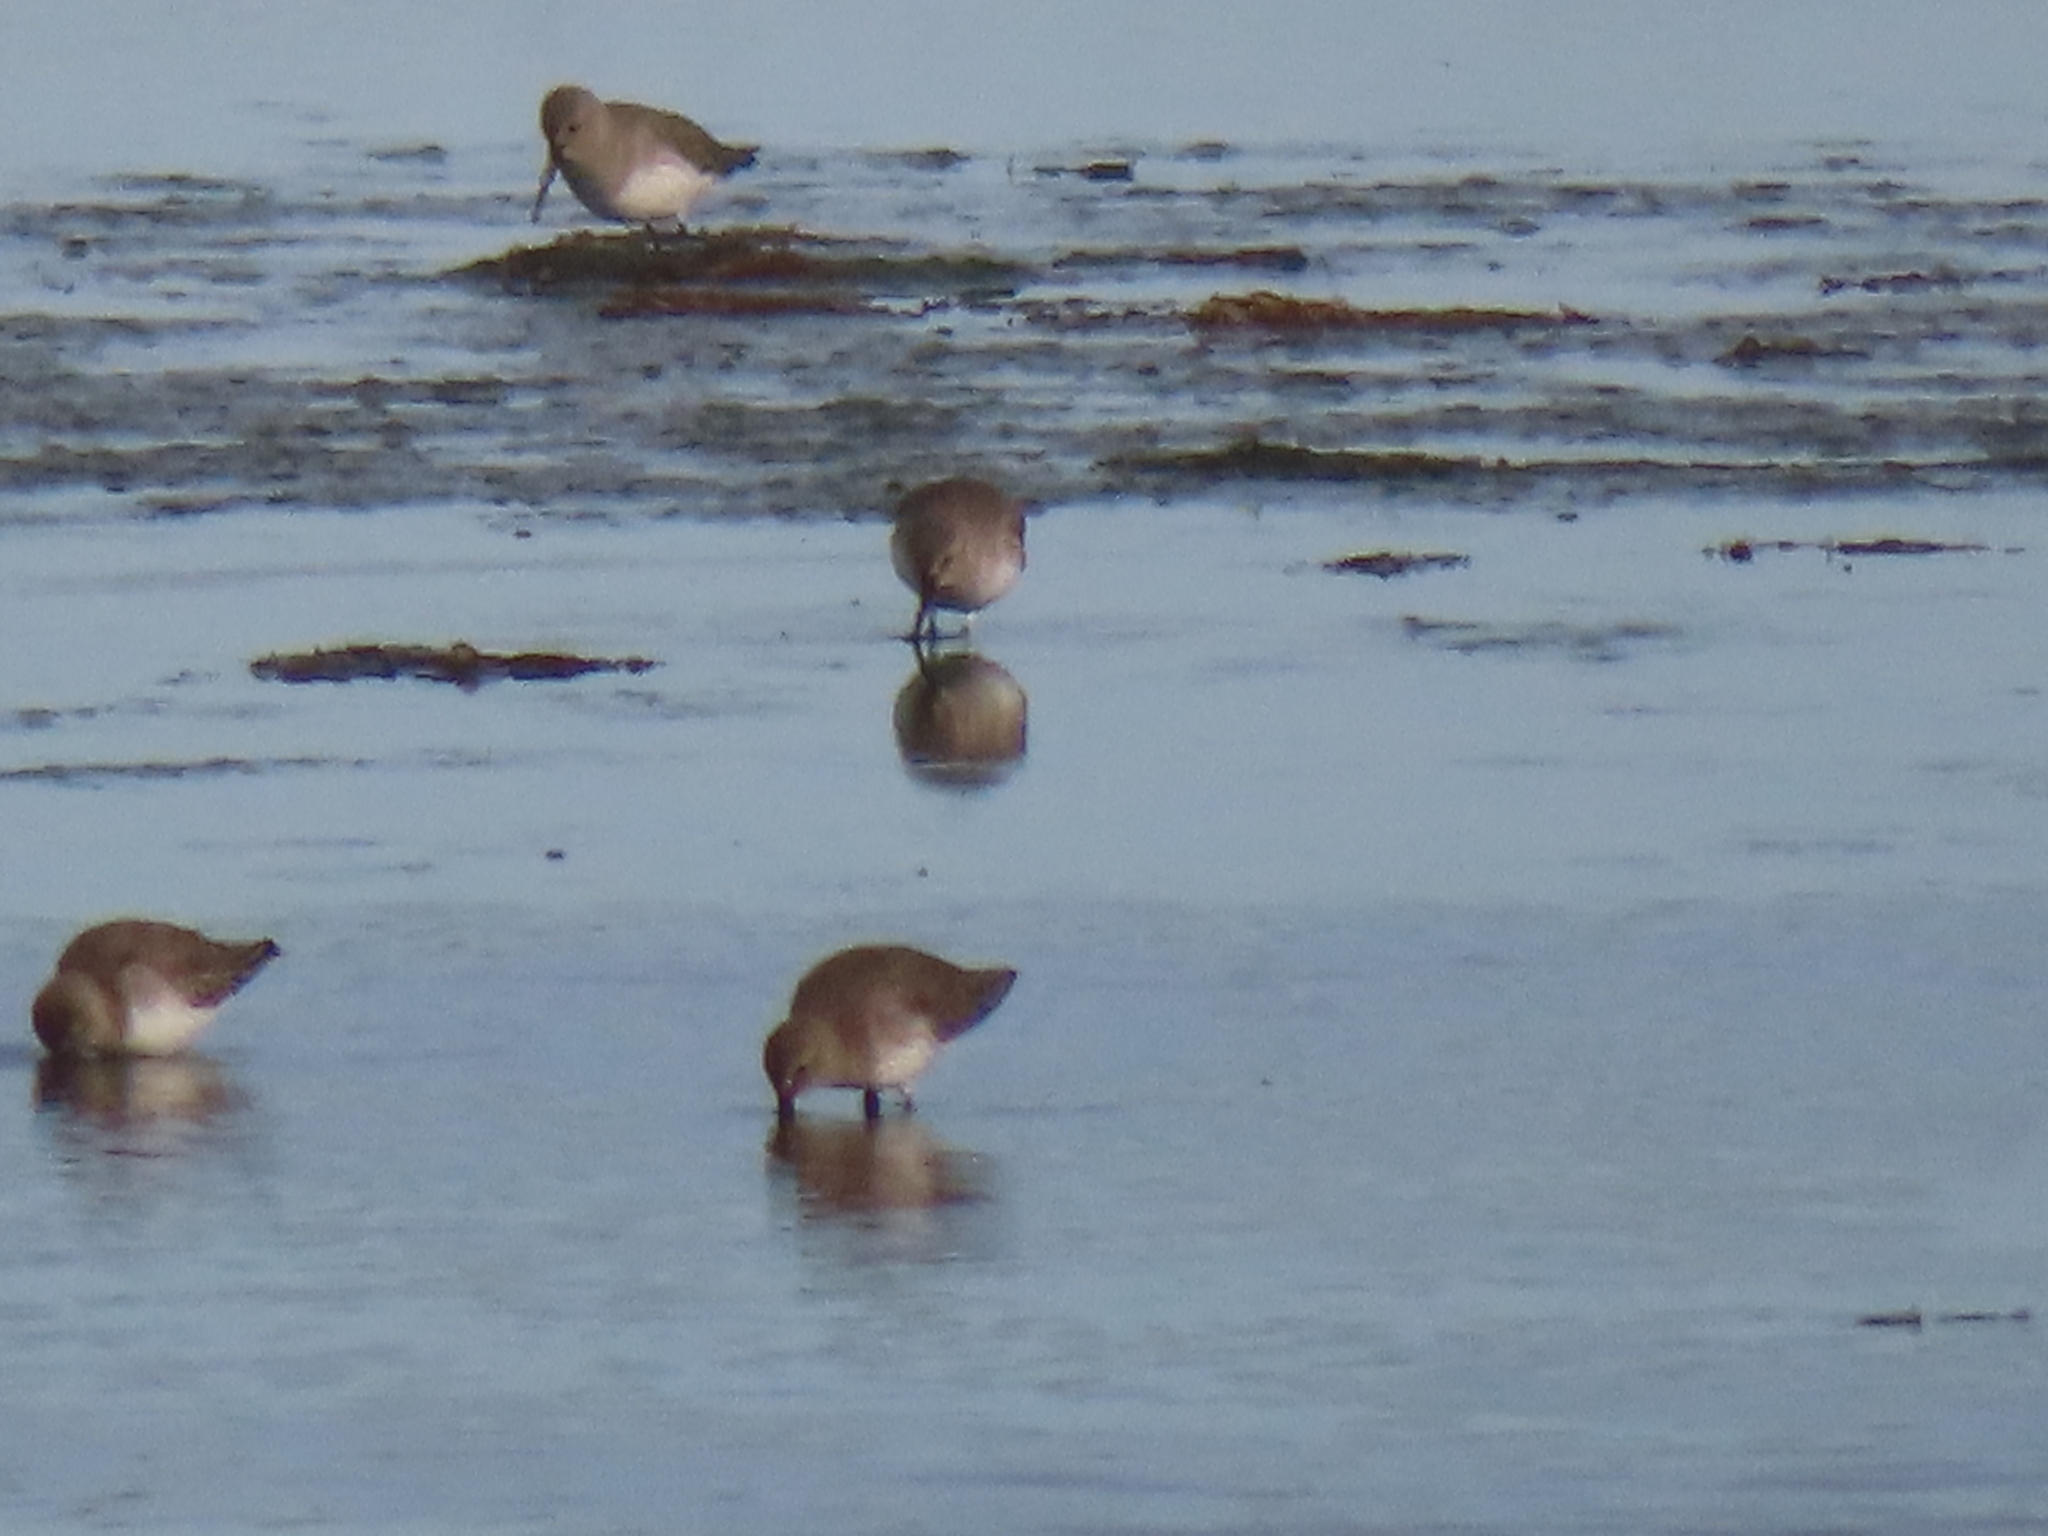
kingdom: Animalia
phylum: Chordata
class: Aves
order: Charadriiformes
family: Scolopacidae
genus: Calidris
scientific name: Calidris alpina
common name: Dunlin
